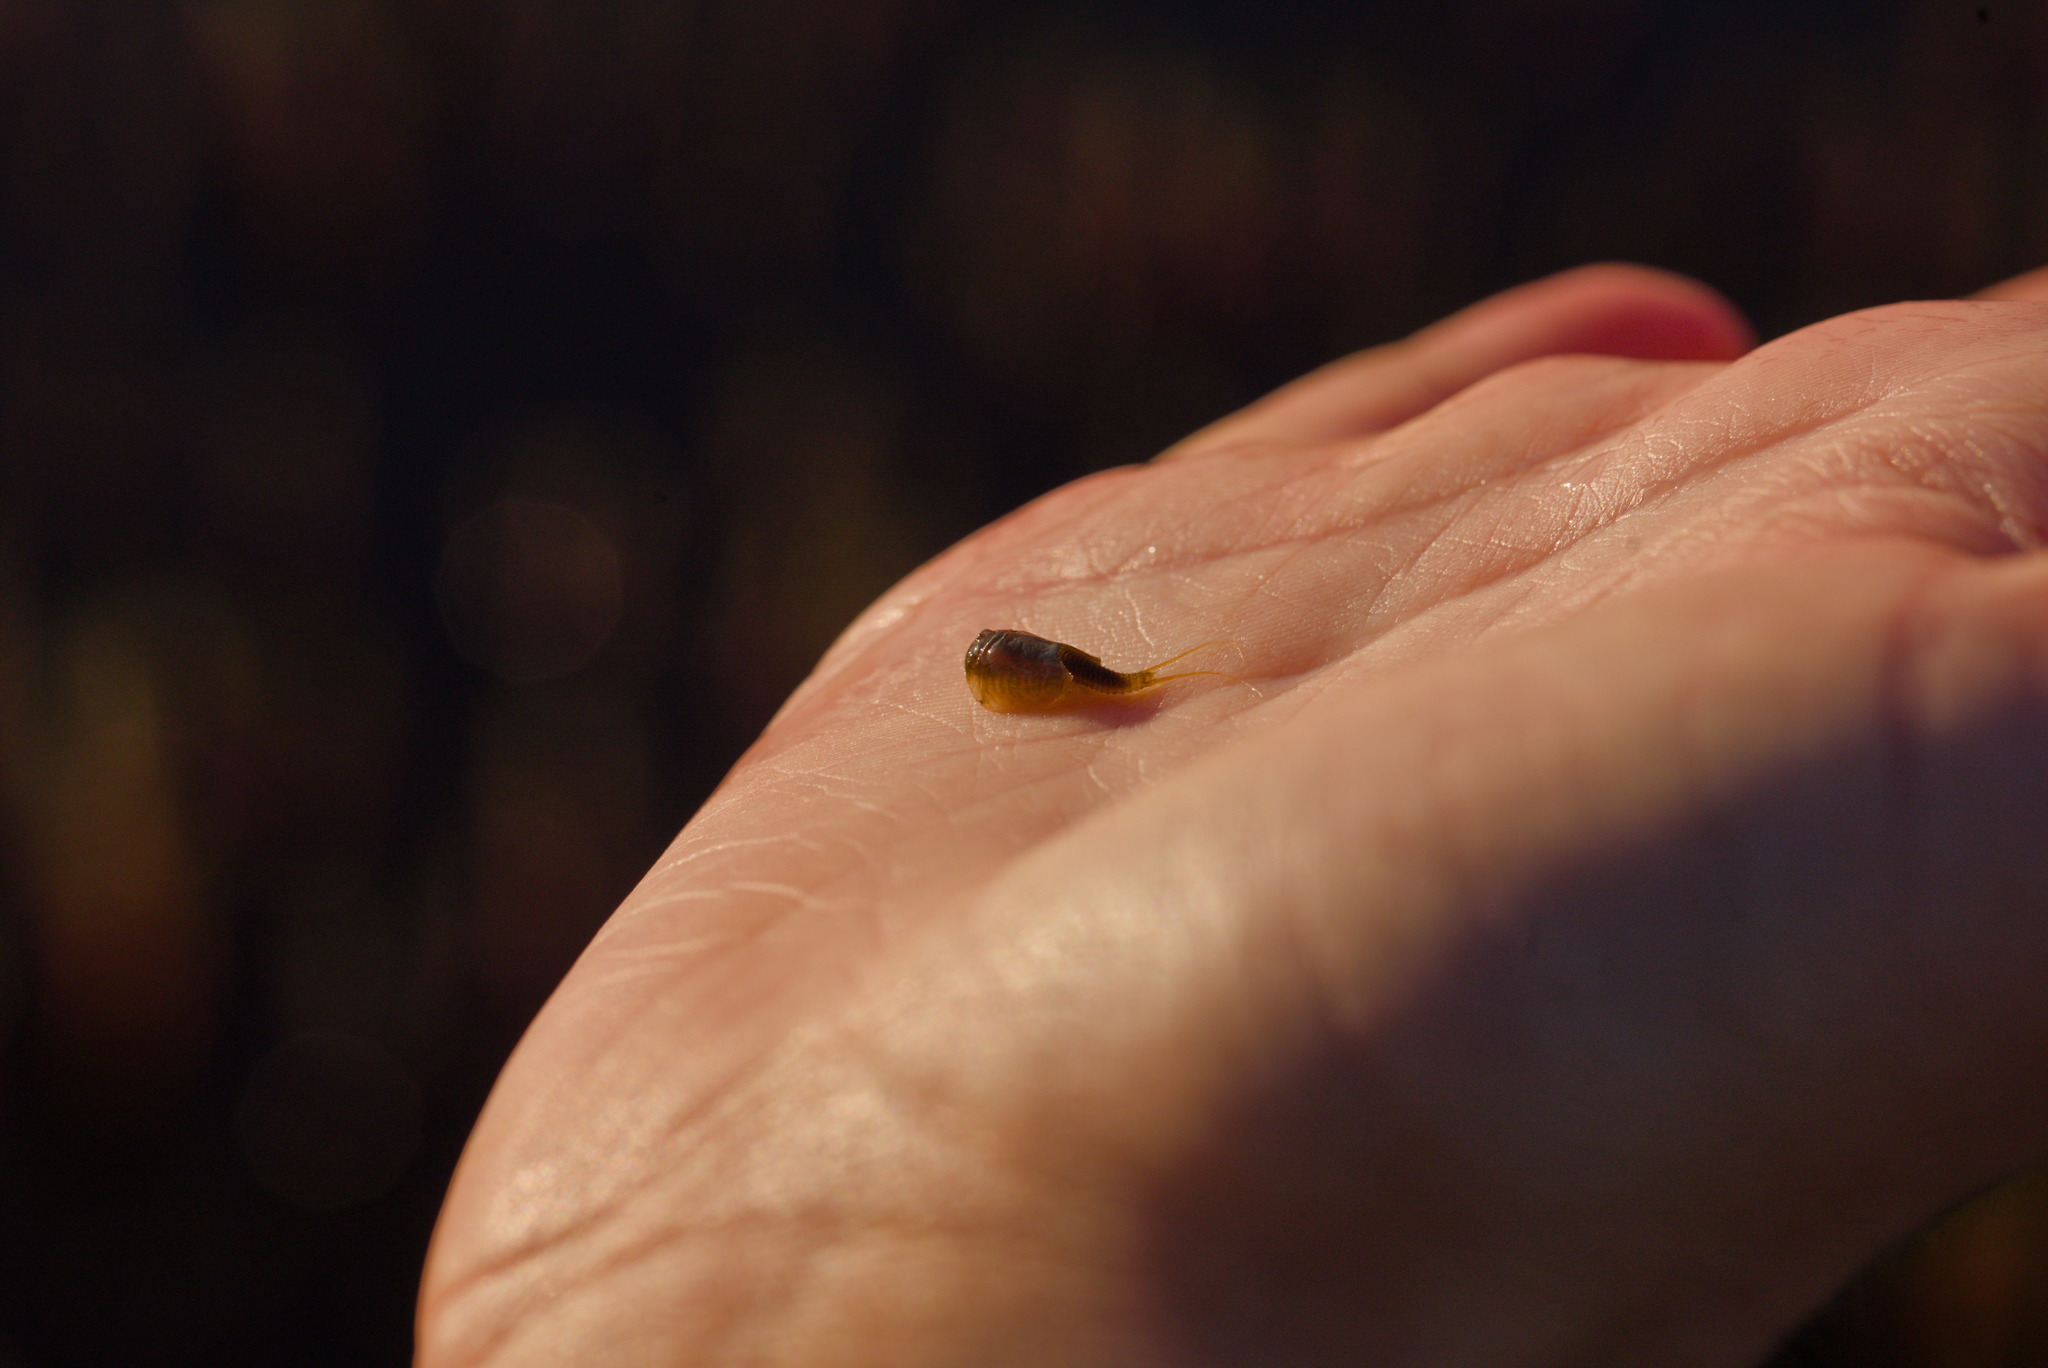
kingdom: Animalia
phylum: Arthropoda
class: Branchiopoda
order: Notostraca
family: Triopsidae
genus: Lepidurus
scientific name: Lepidurus arcticus
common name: Arctic tadpole shrimp
